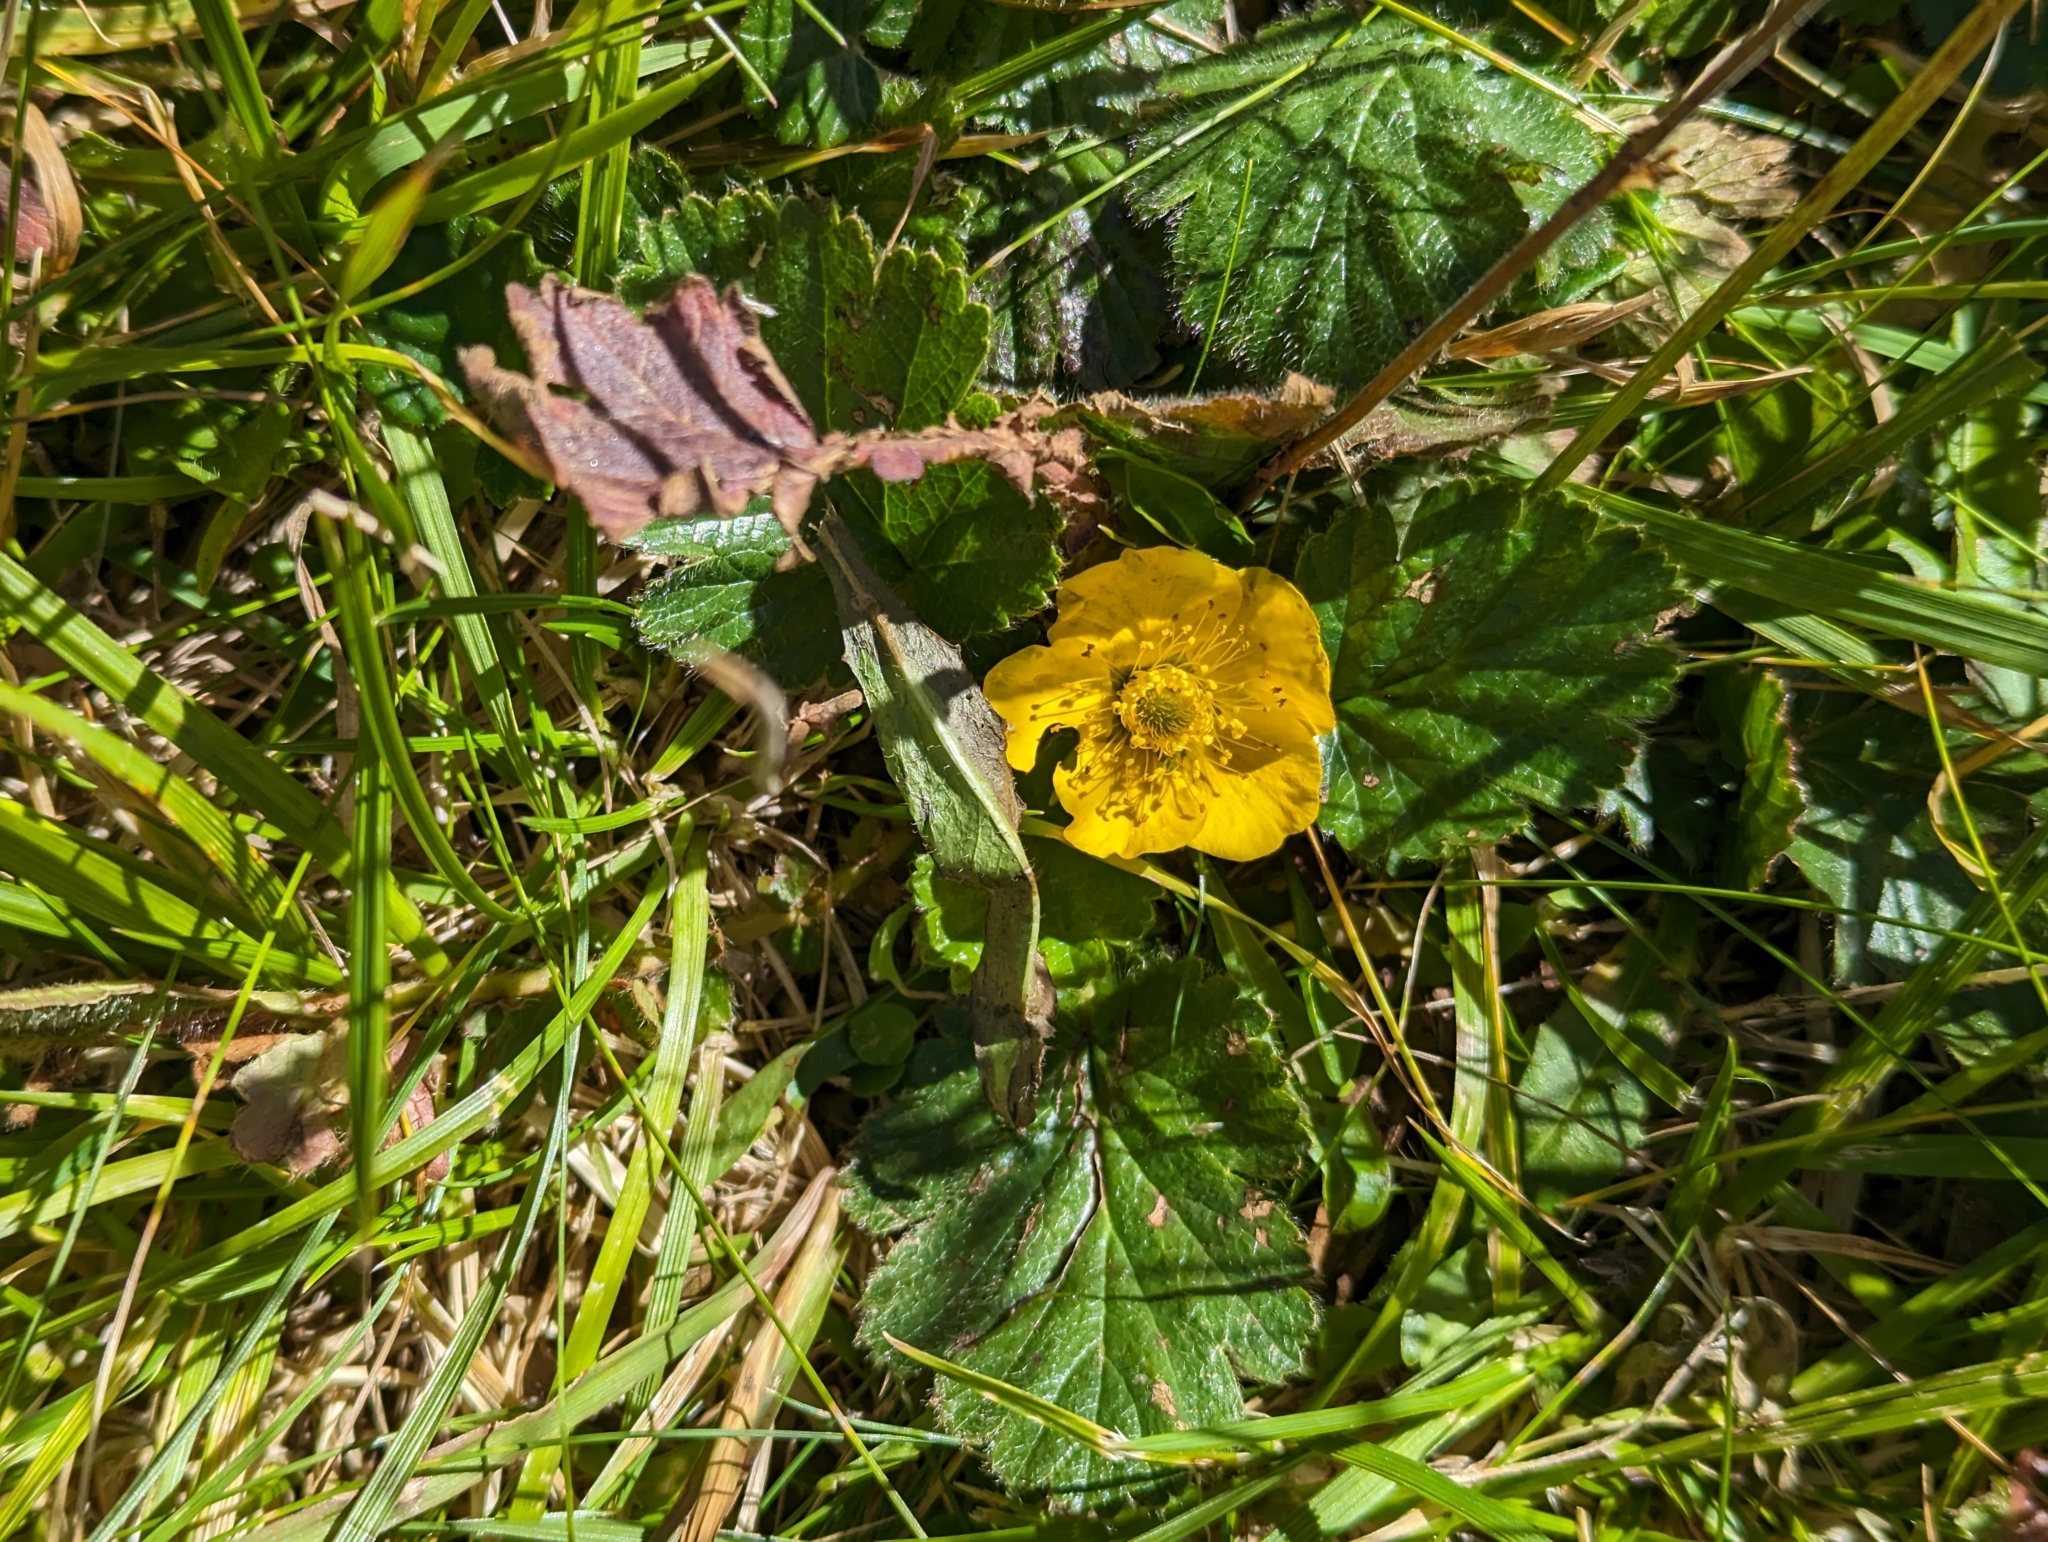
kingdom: Plantae
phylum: Tracheophyta
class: Magnoliopsida
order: Rosales
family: Rosaceae
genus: Geum
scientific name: Geum montanum
